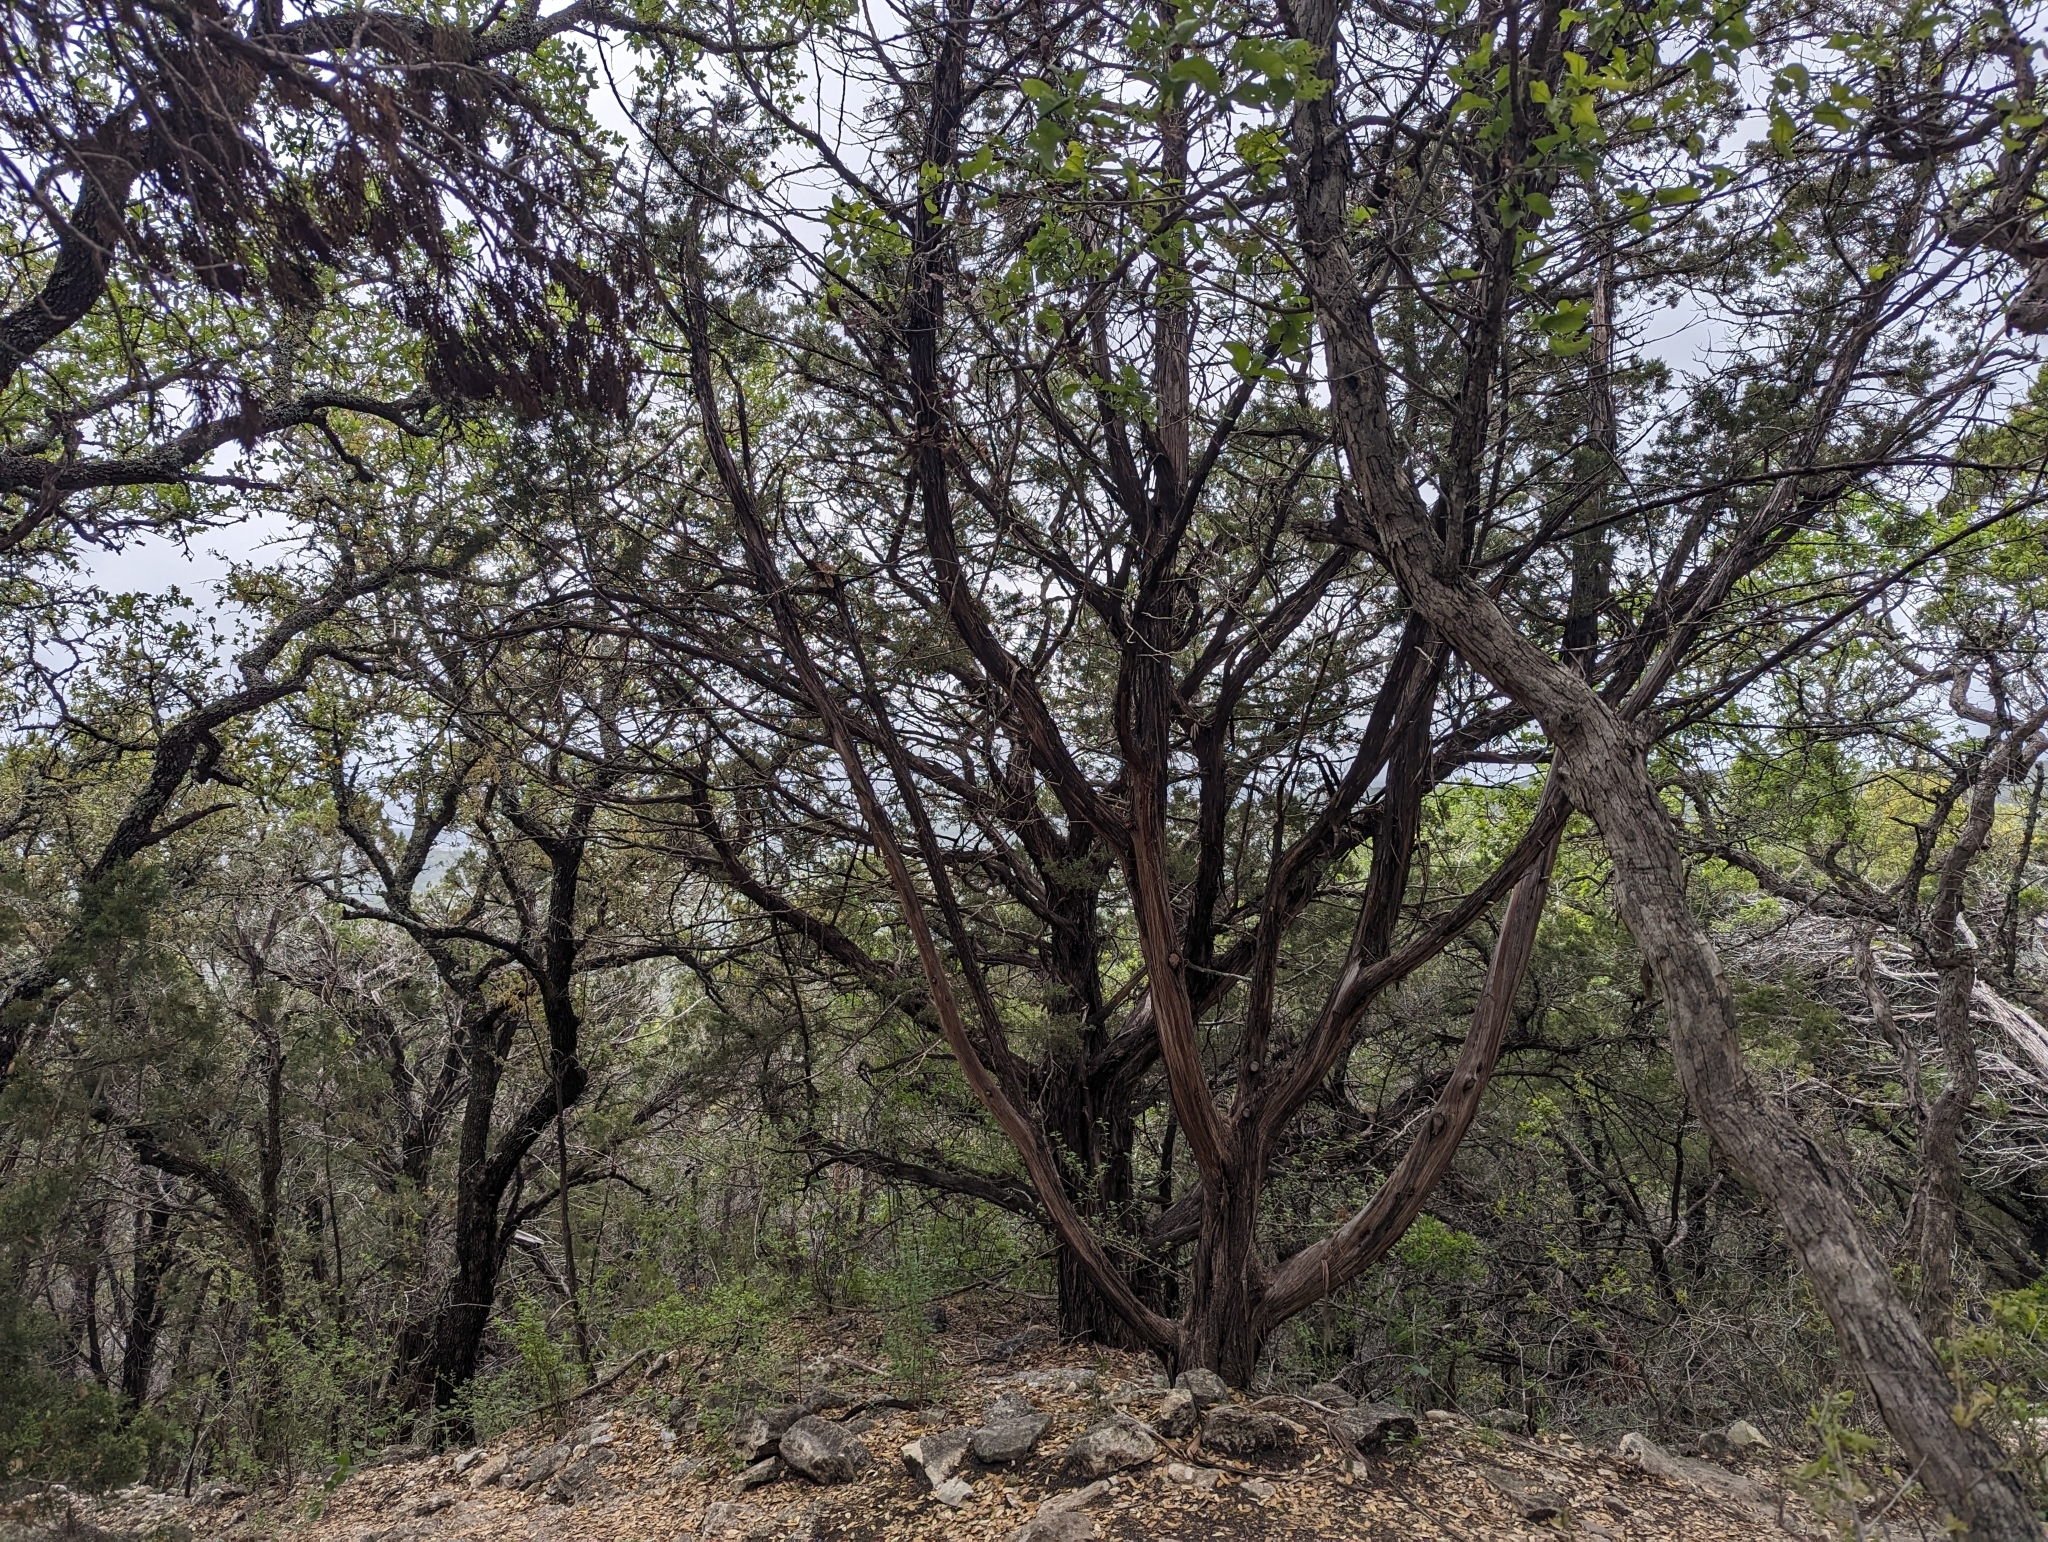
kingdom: Plantae
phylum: Tracheophyta
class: Pinopsida
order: Pinales
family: Cupressaceae
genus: Juniperus
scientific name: Juniperus ashei
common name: Mexican juniper
